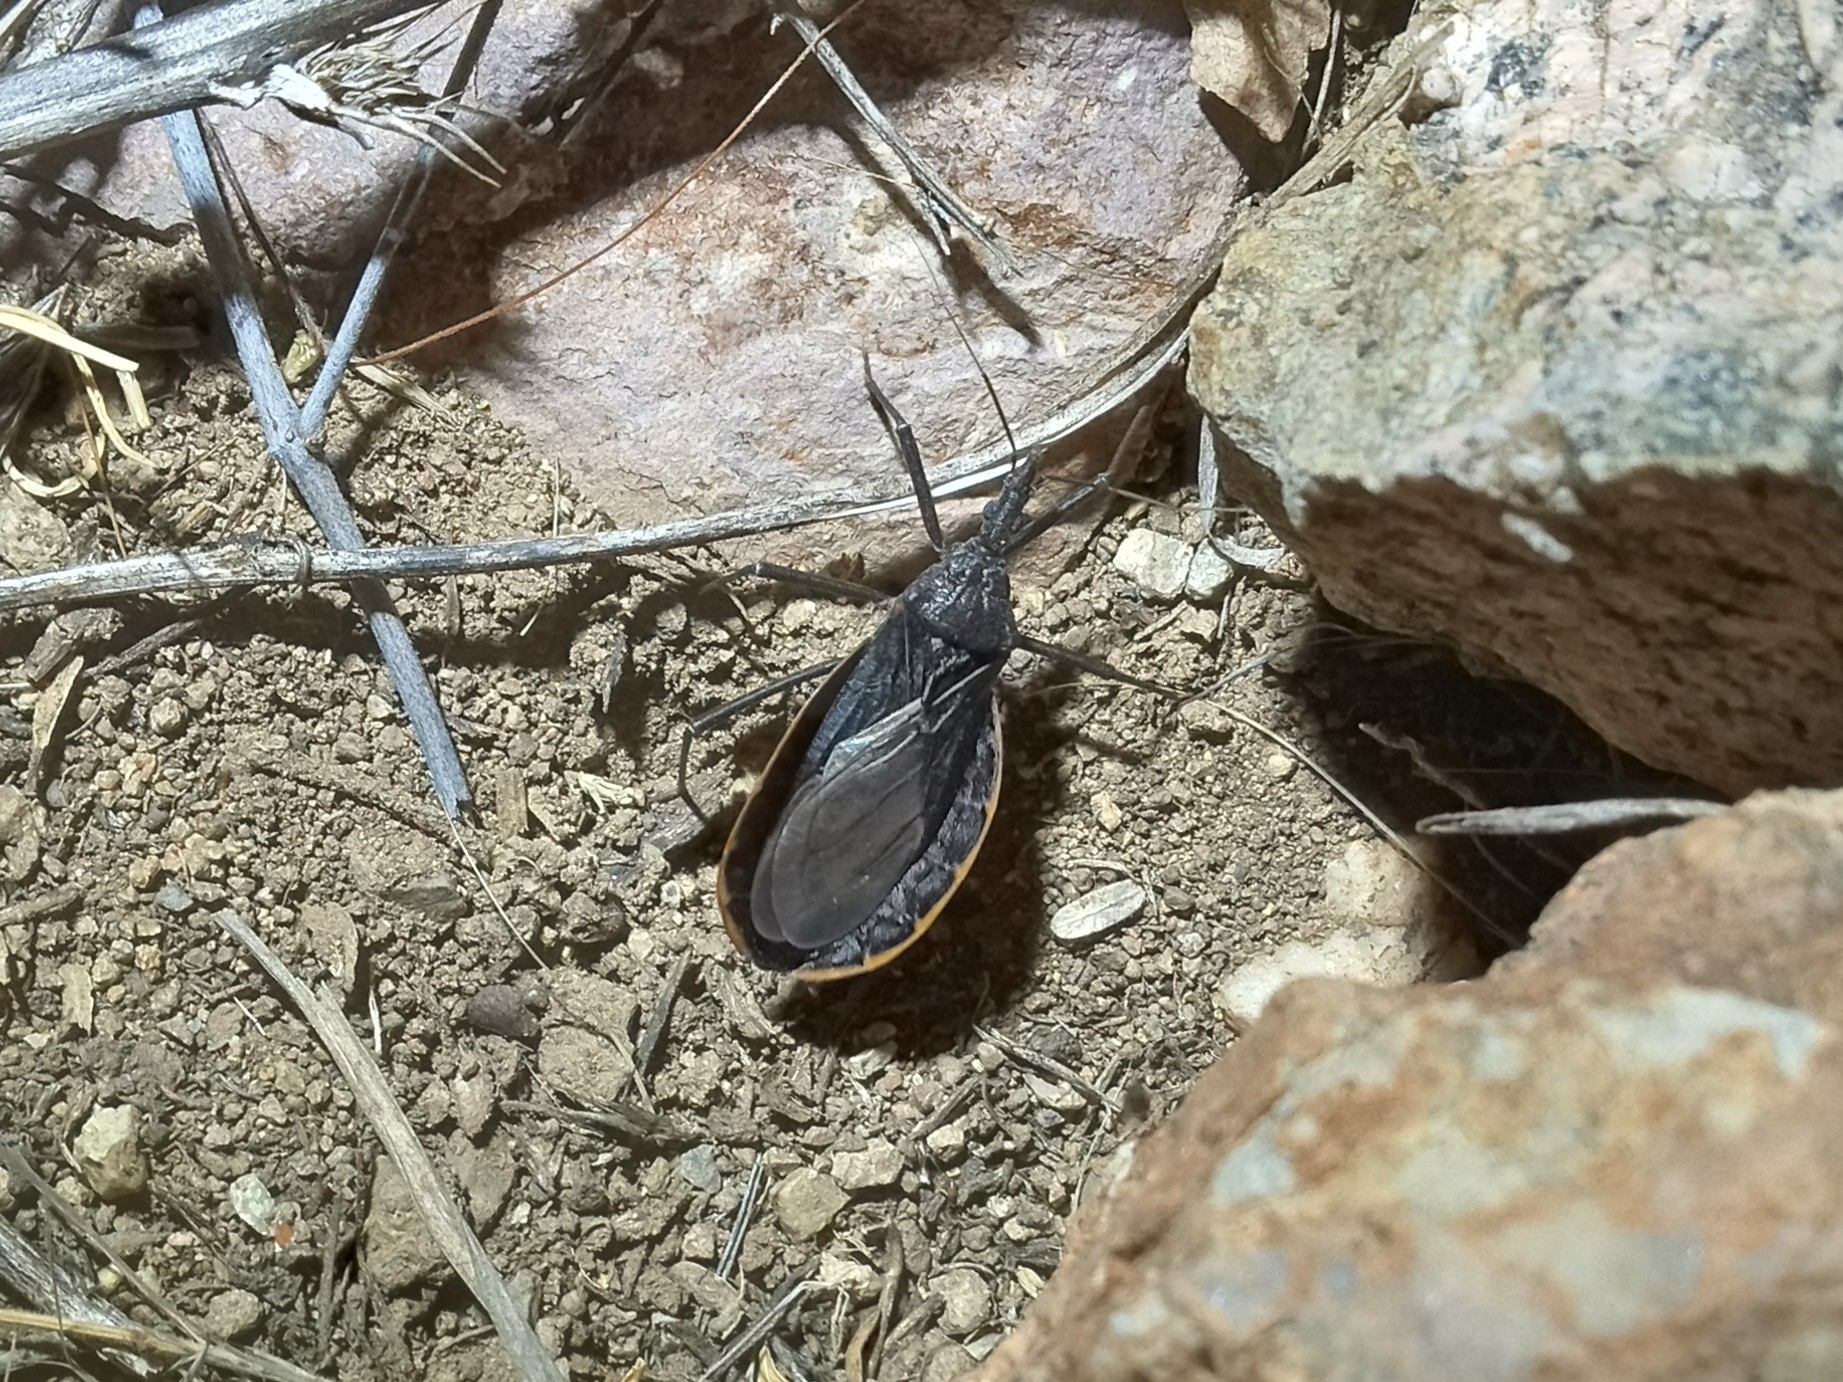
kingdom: Animalia
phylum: Arthropoda
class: Insecta
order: Hemiptera
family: Reduviidae
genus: Triatoma
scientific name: Triatoma recurva
